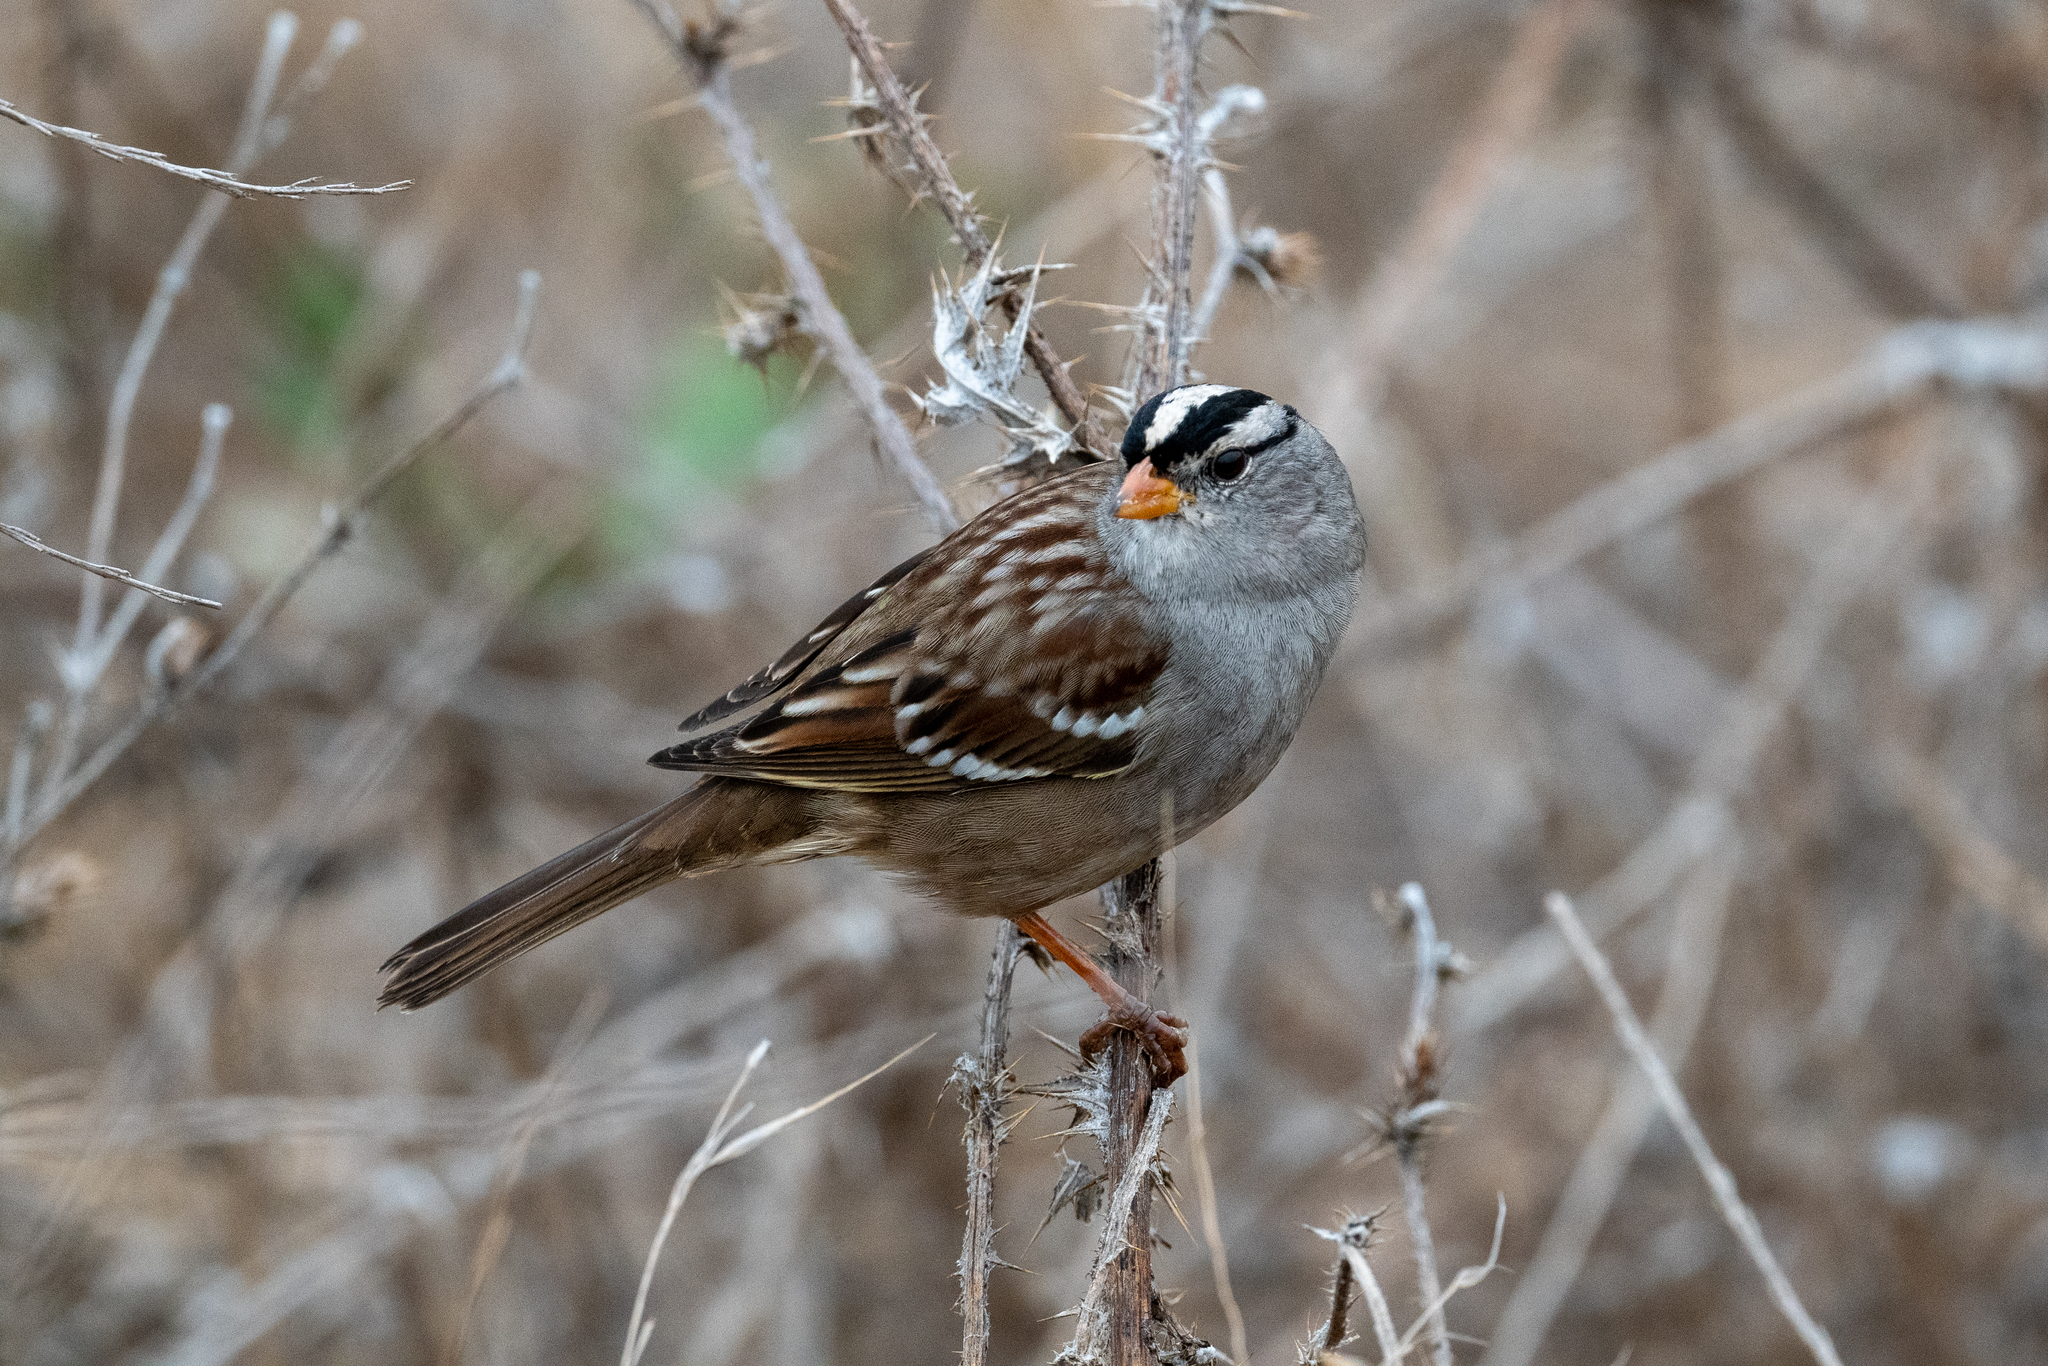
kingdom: Animalia
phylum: Chordata
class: Aves
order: Passeriformes
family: Passerellidae
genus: Zonotrichia
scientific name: Zonotrichia leucophrys
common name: White-crowned sparrow
